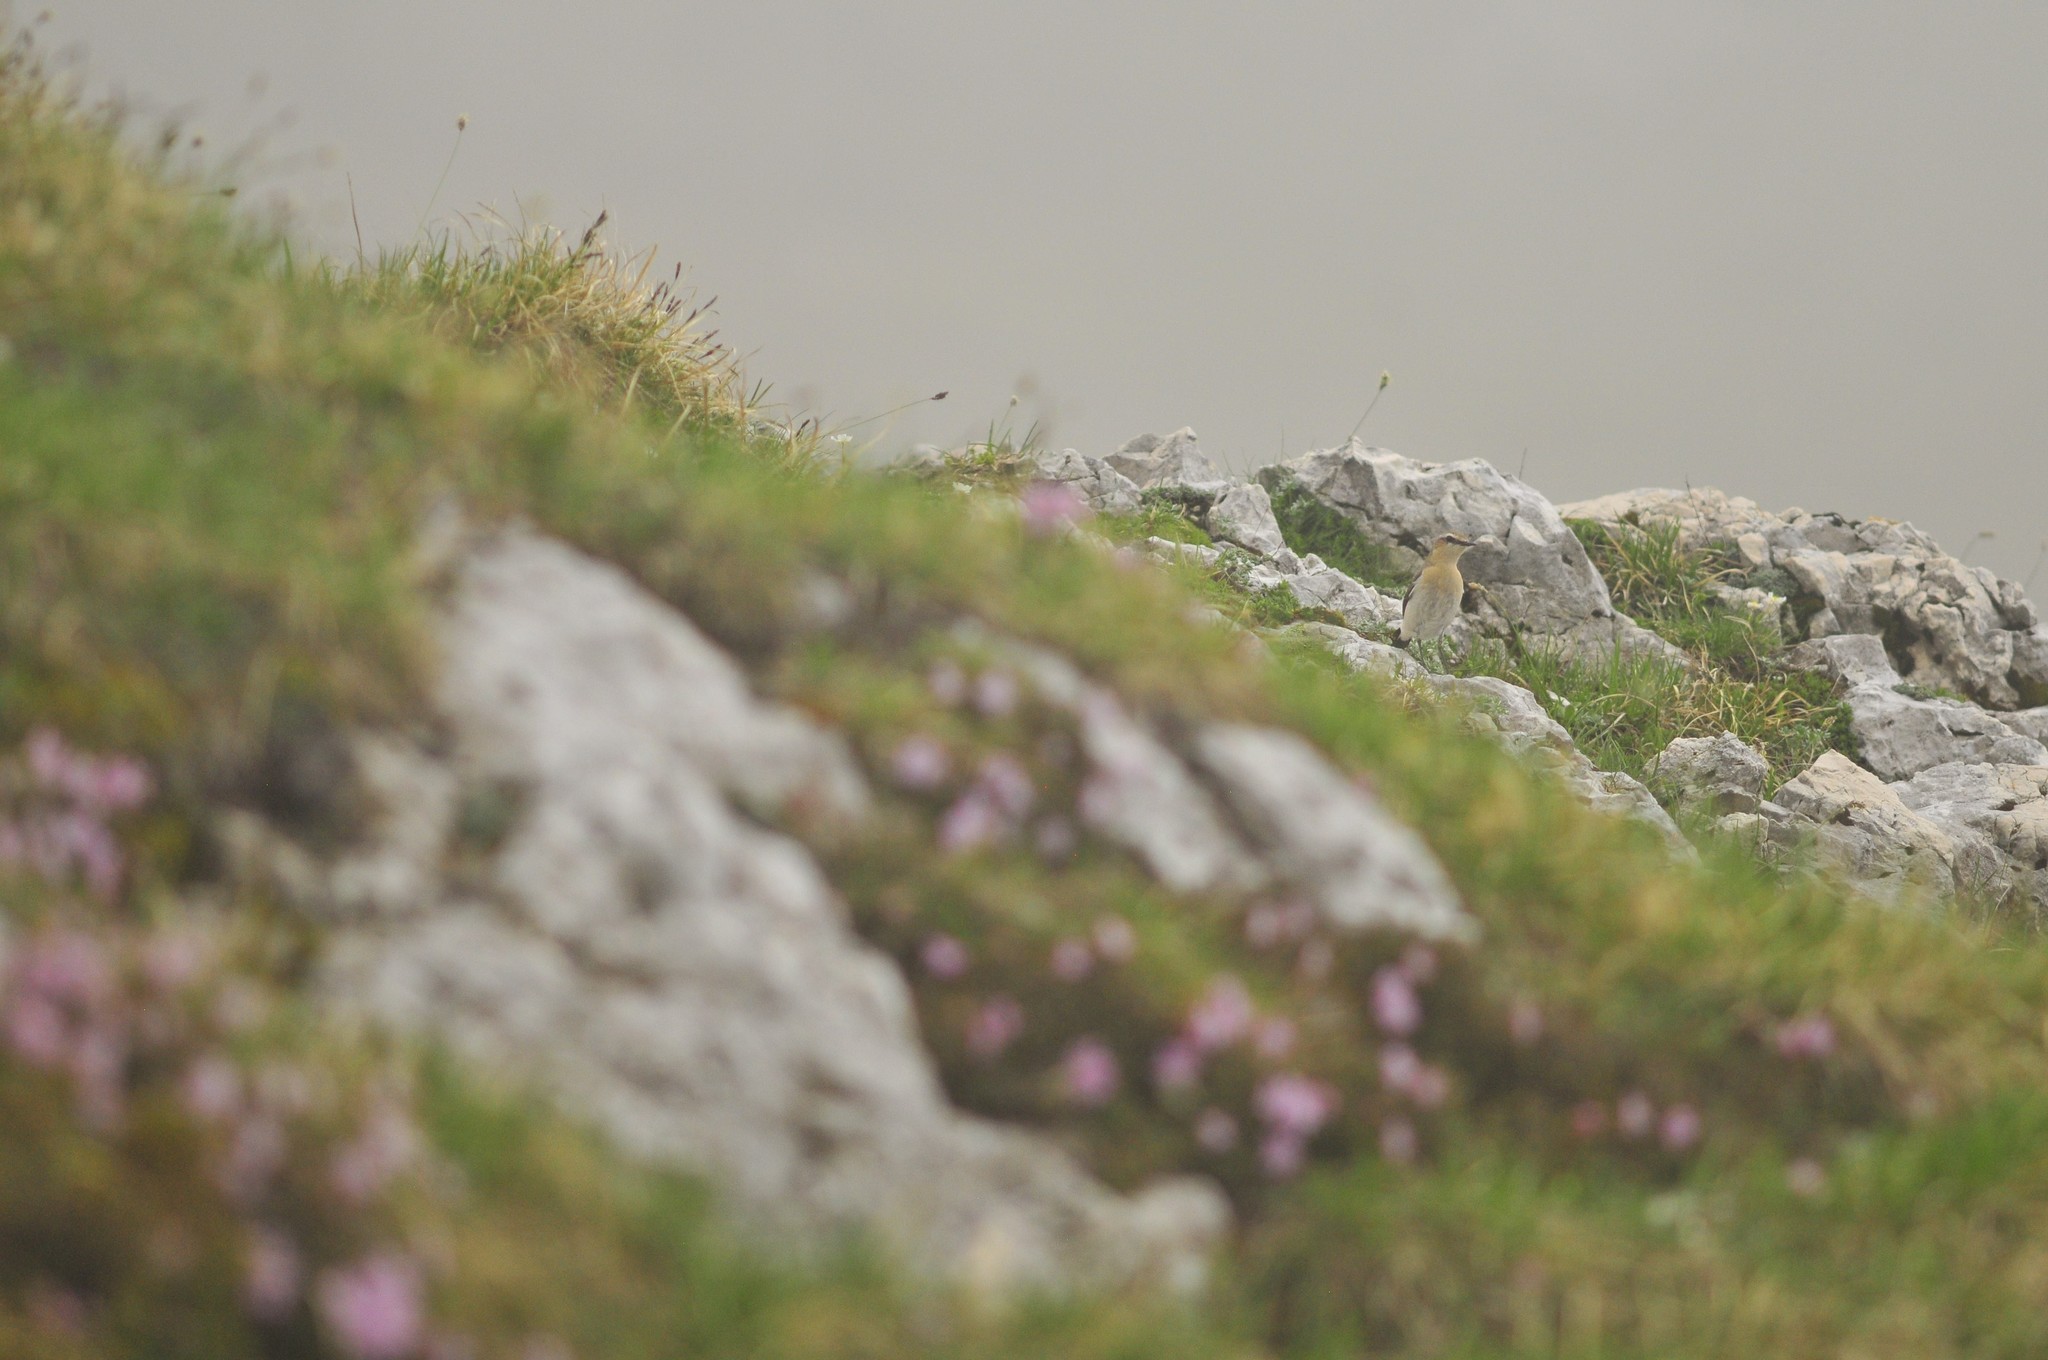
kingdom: Animalia
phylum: Chordata
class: Aves
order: Passeriformes
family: Muscicapidae
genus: Oenanthe
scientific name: Oenanthe oenanthe
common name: Northern wheatear
